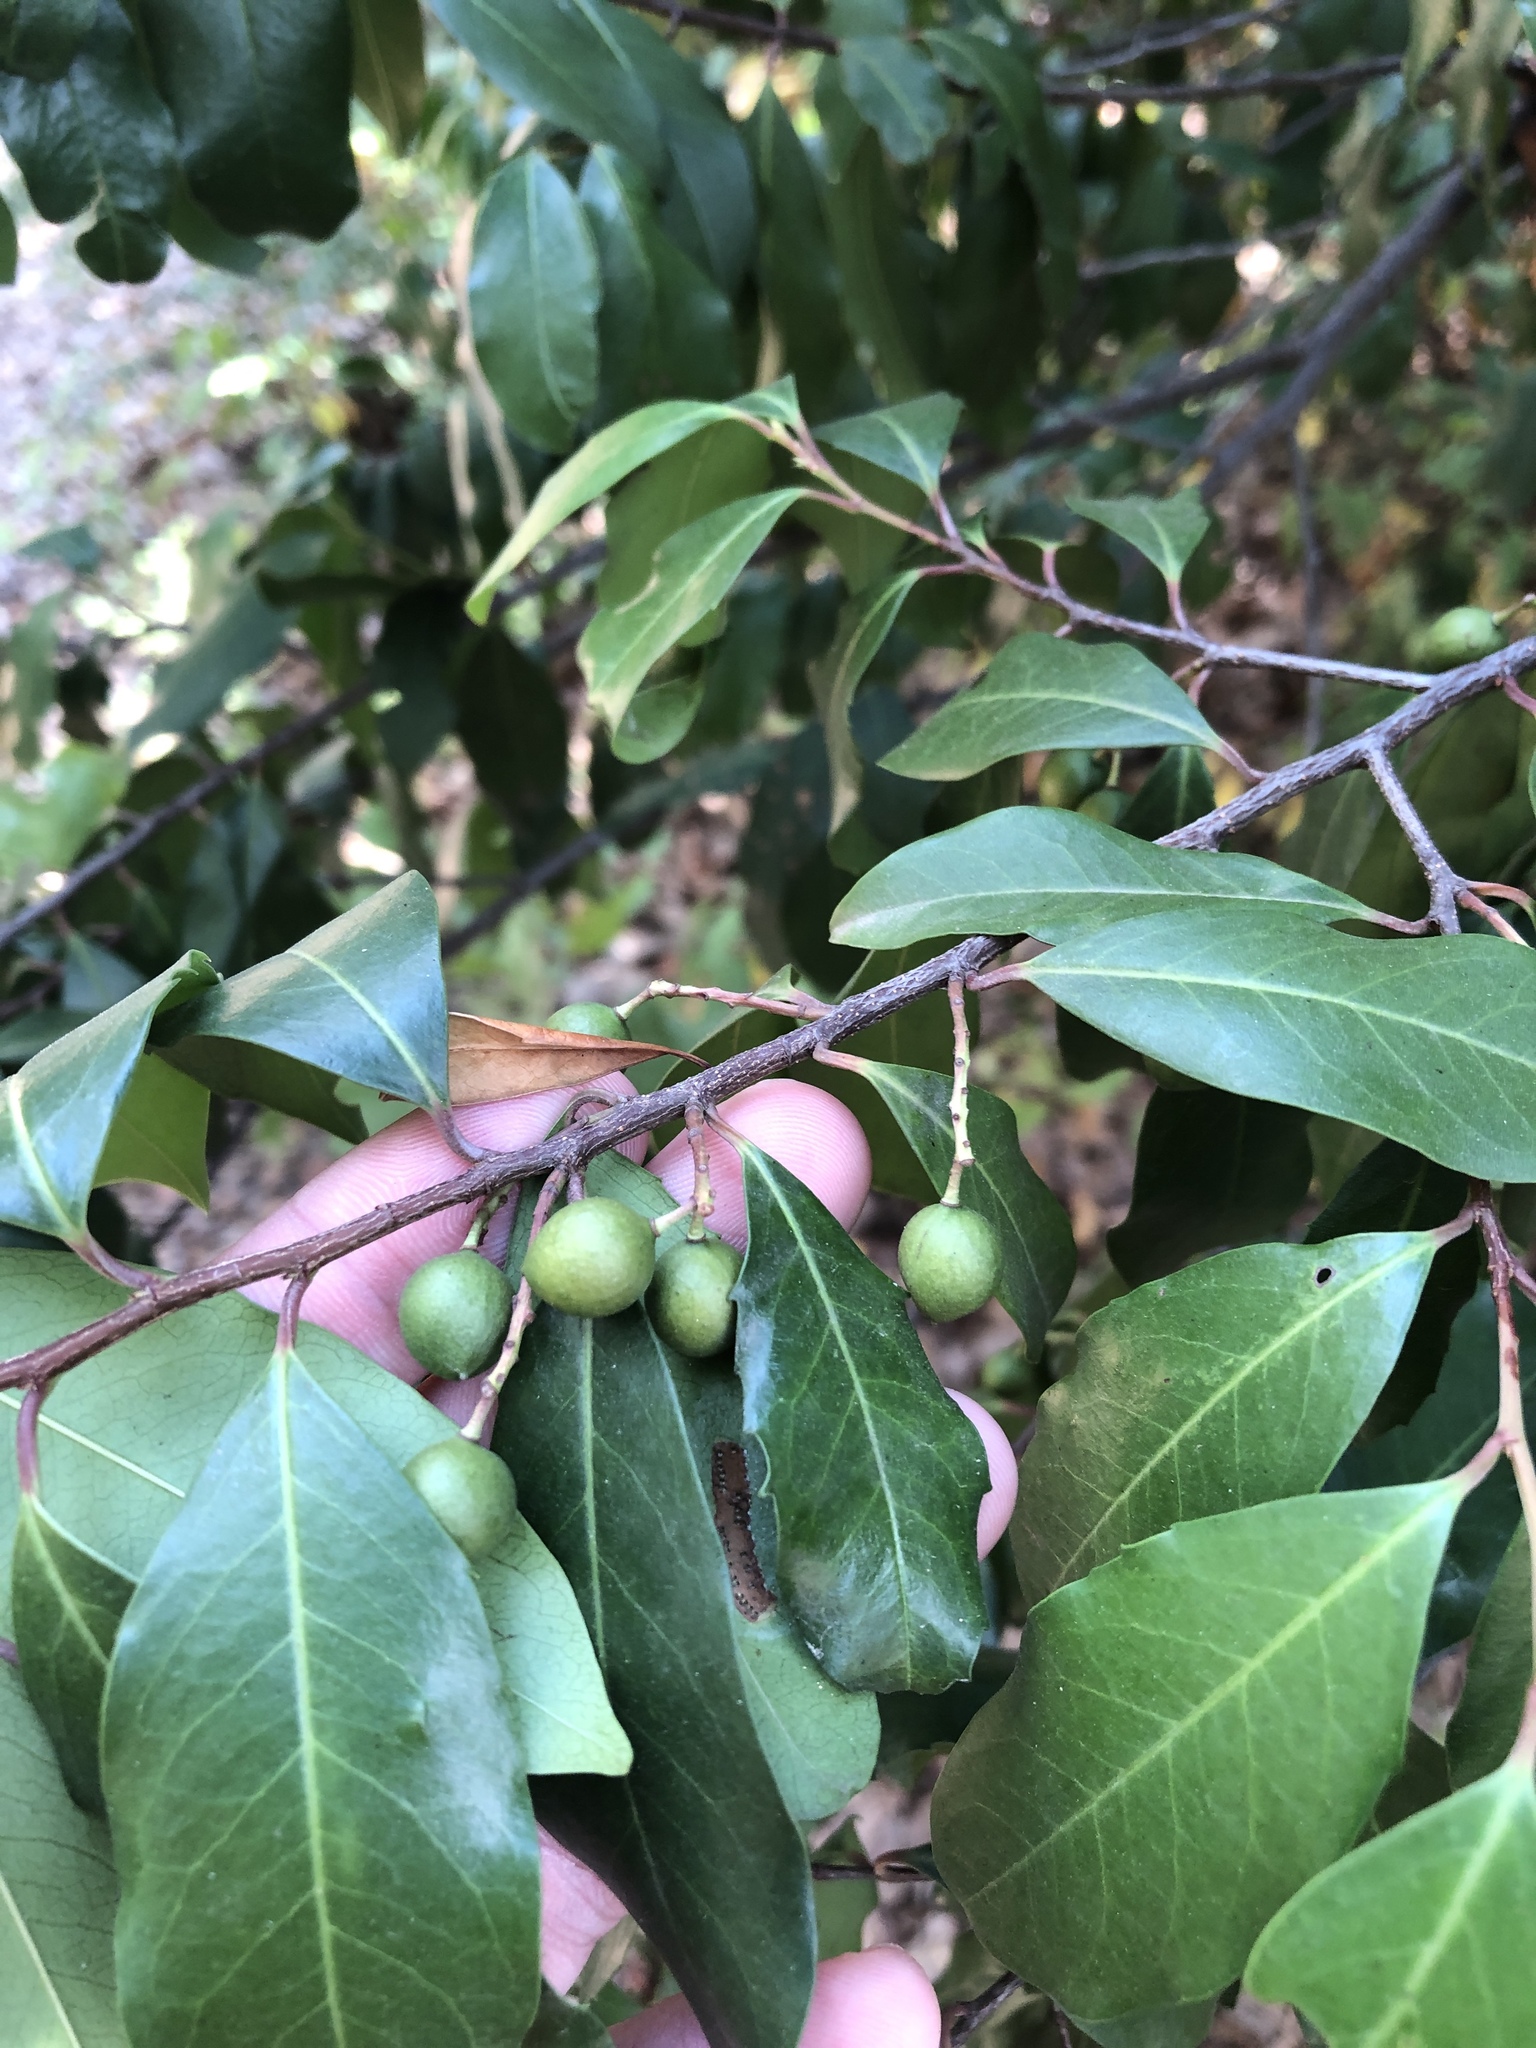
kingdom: Plantae
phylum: Tracheophyta
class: Magnoliopsida
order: Rosales
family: Rosaceae
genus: Prunus
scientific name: Prunus caroliniana
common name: Carolina laurel cherry
